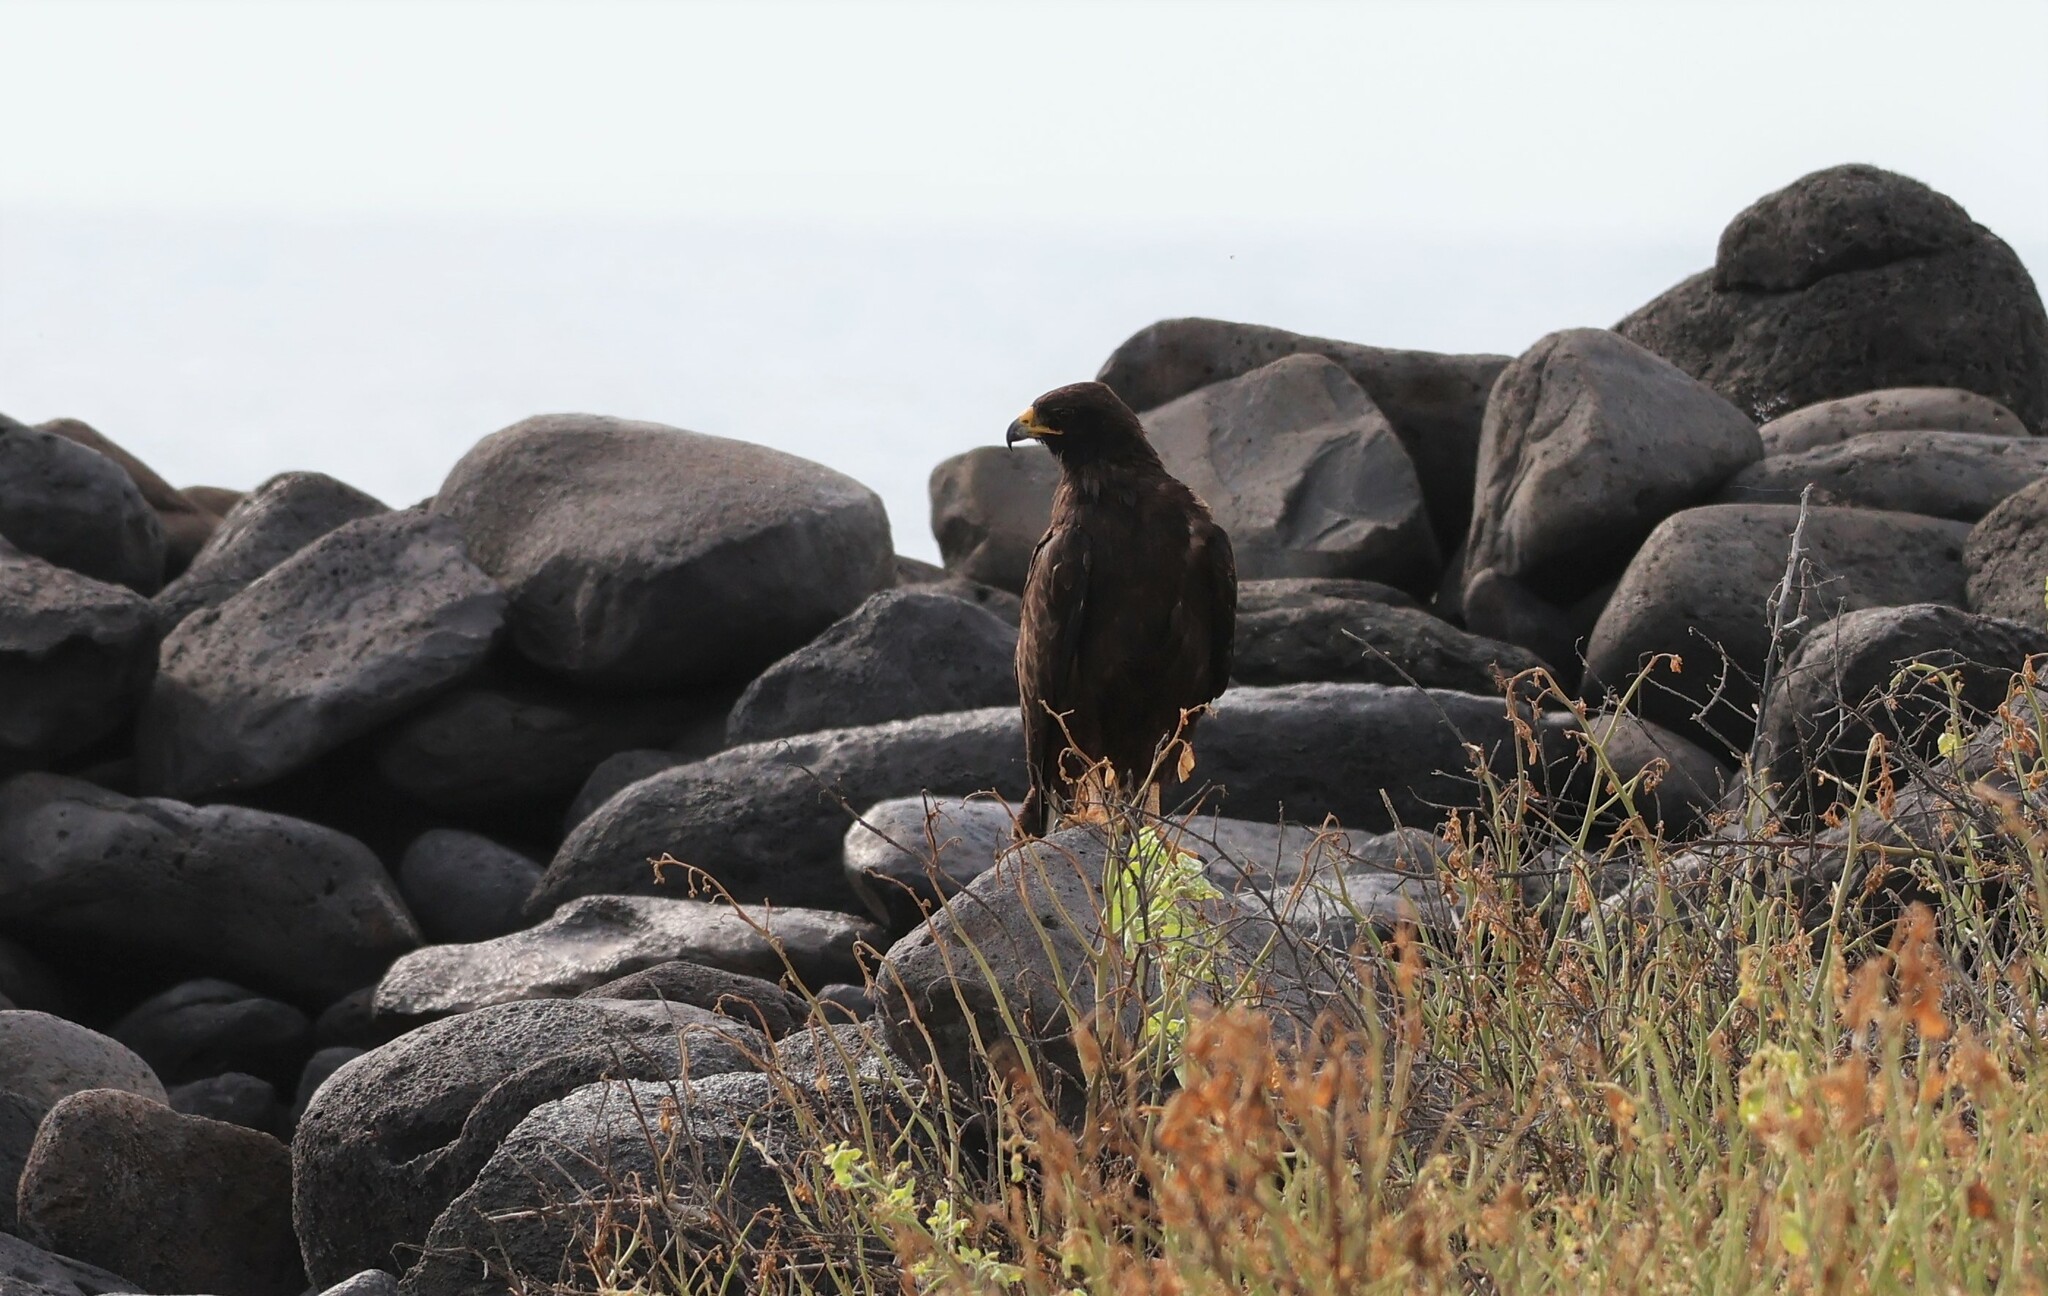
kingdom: Animalia
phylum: Chordata
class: Aves
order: Accipitriformes
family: Accipitridae
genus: Buteo
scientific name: Buteo galapagoensis
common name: Galapagos hawk
